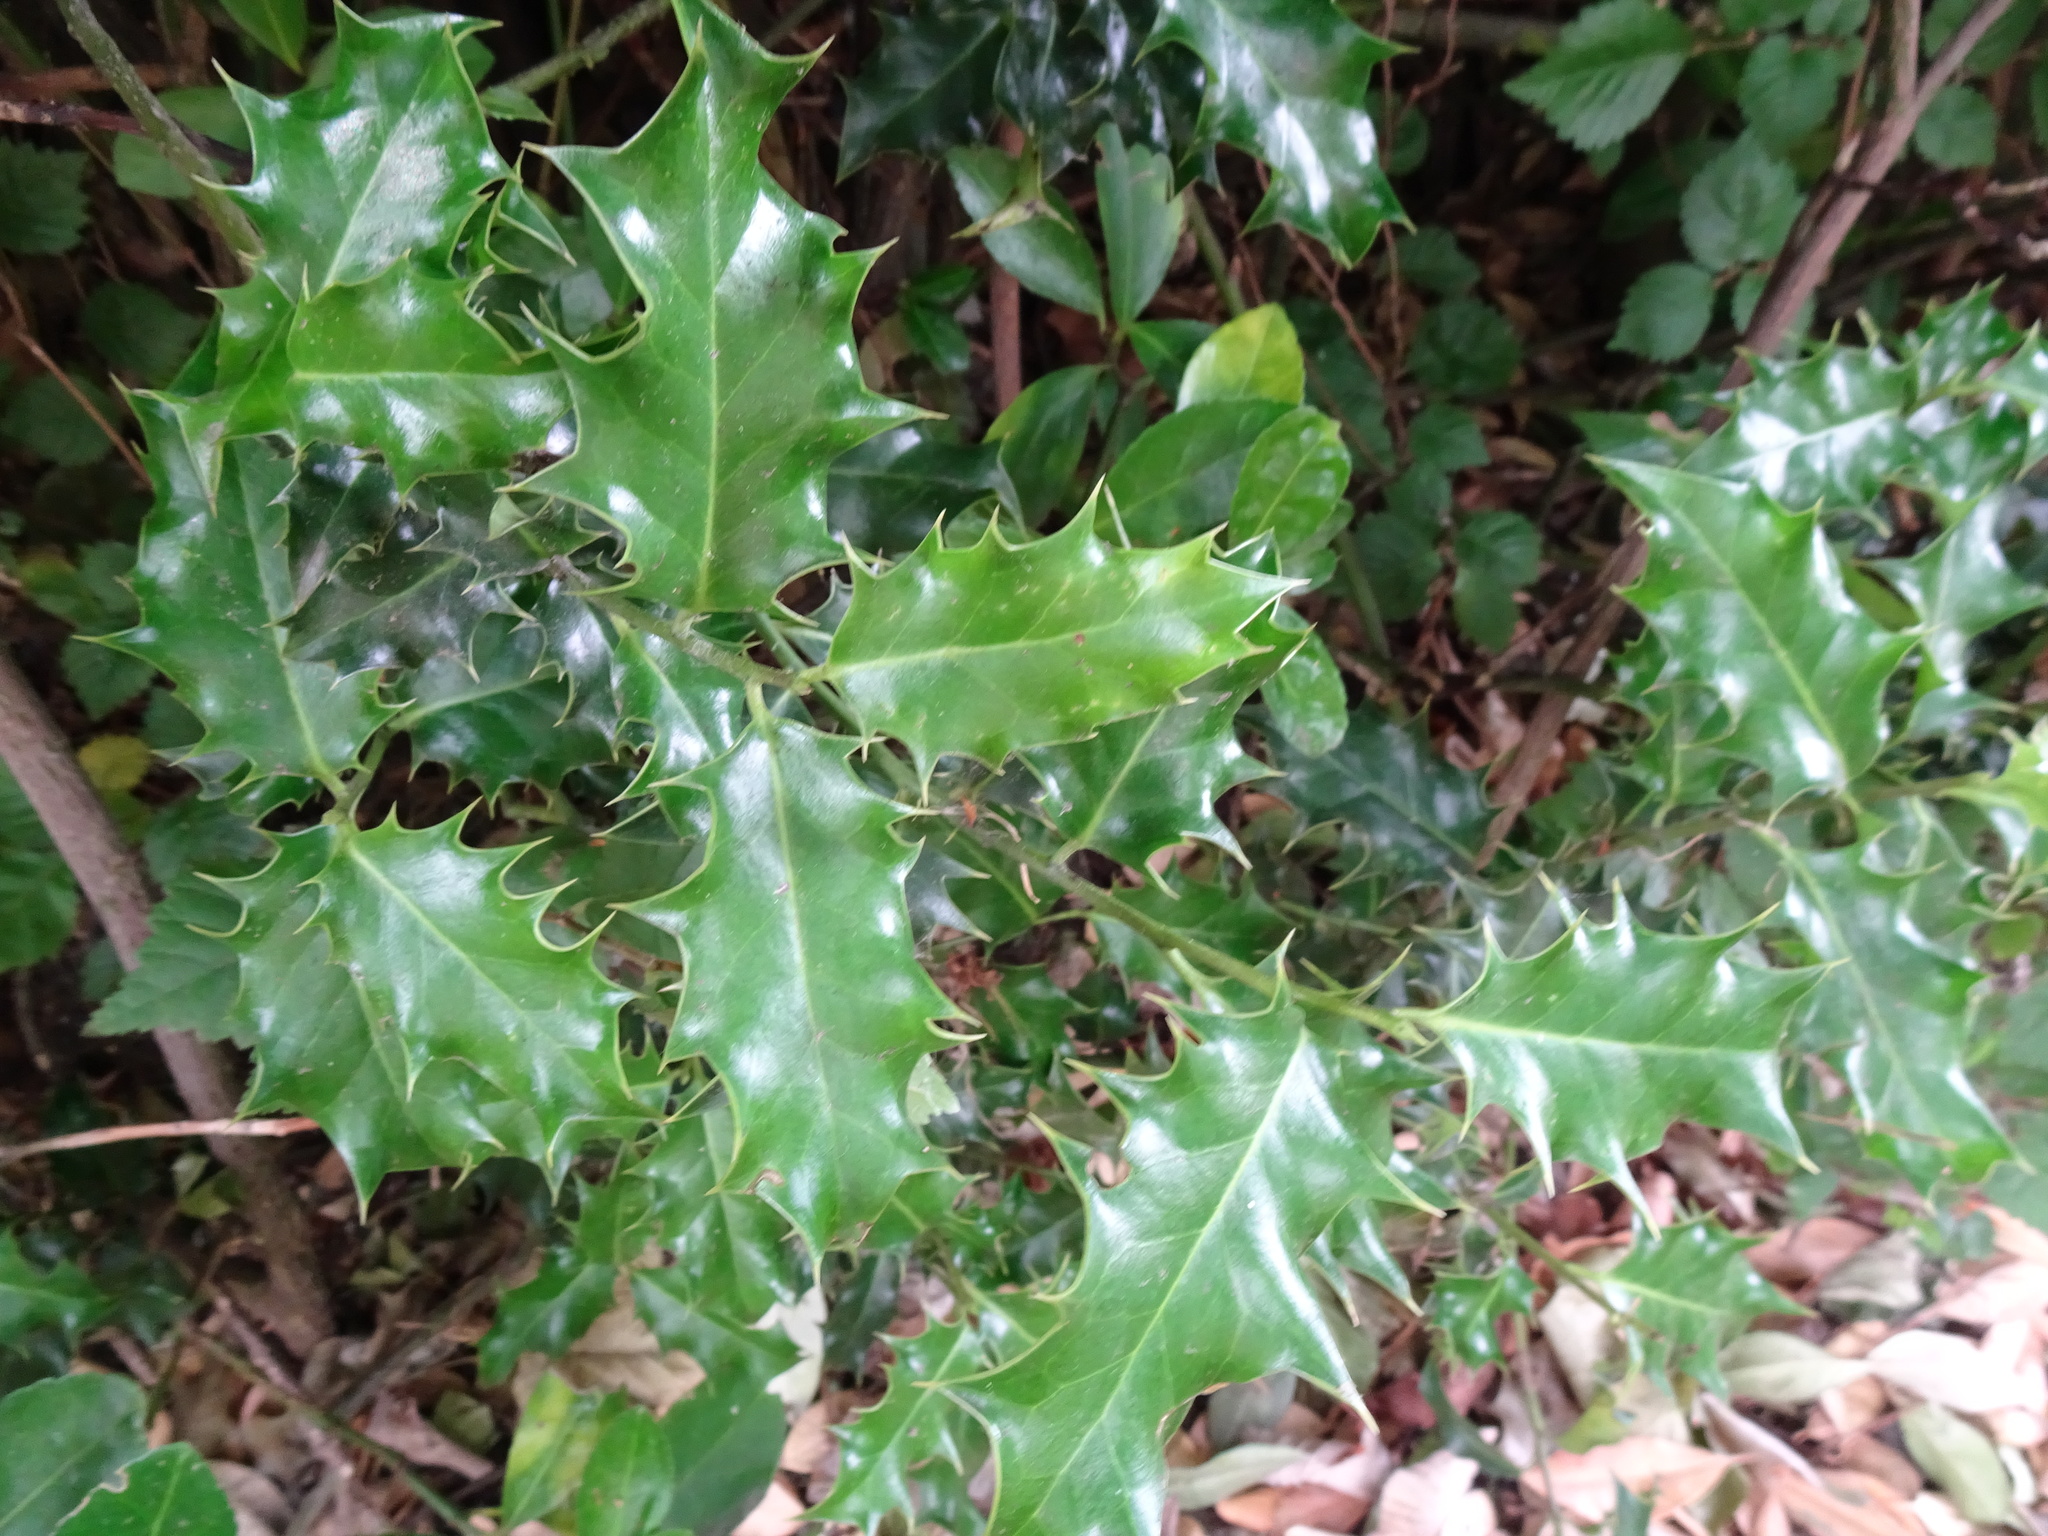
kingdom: Plantae
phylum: Tracheophyta
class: Magnoliopsida
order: Aquifoliales
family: Aquifoliaceae
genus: Ilex
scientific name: Ilex aquifolium
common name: English holly
